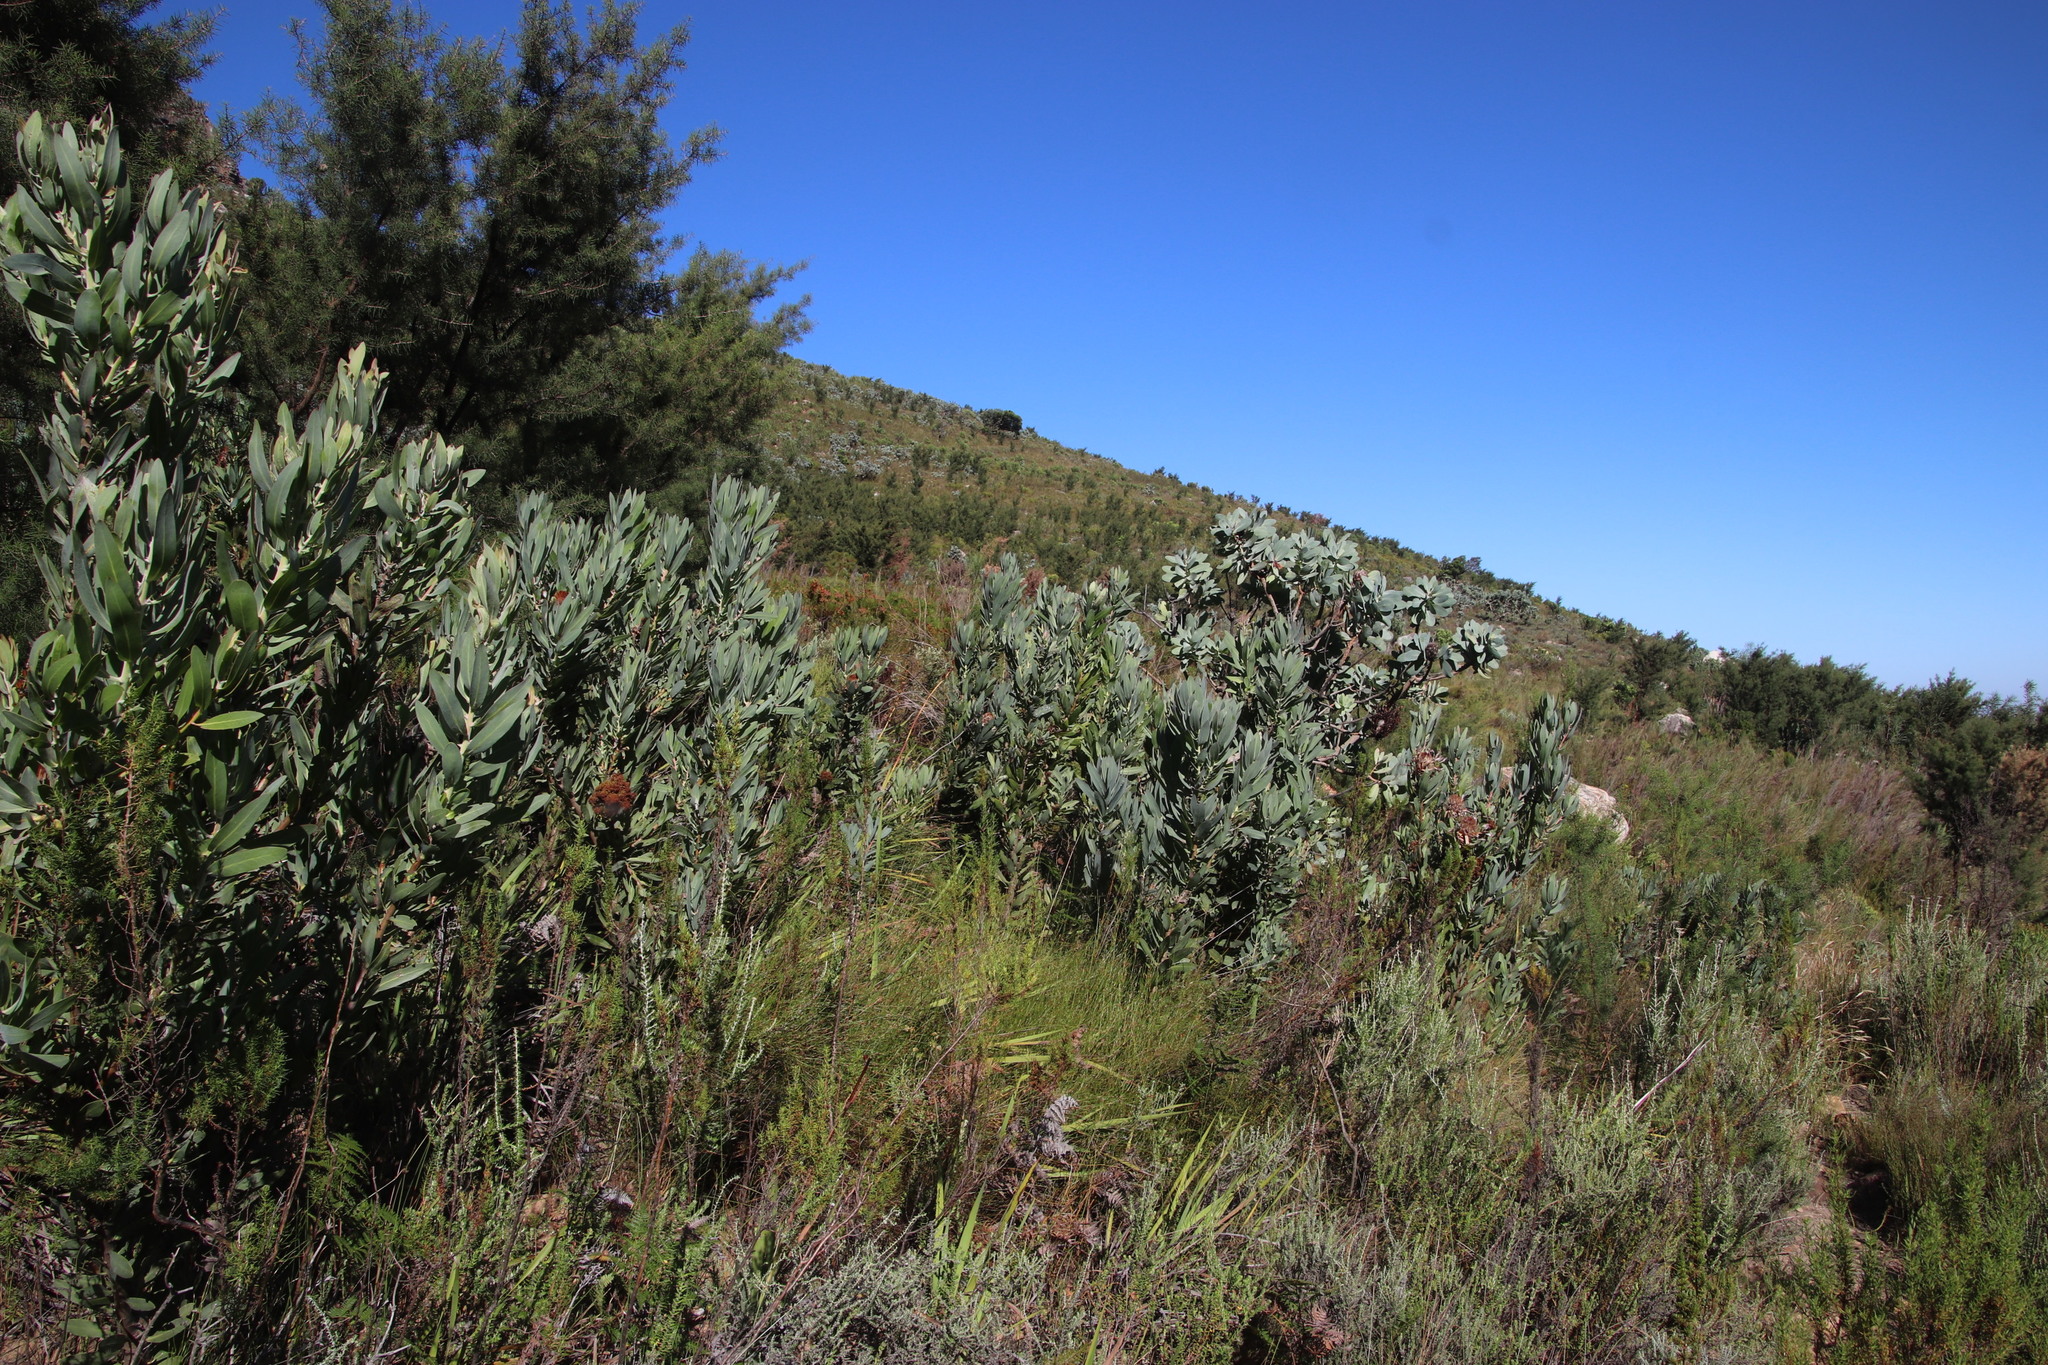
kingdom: Plantae
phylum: Tracheophyta
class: Magnoliopsida
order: Proteales
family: Proteaceae
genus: Protea
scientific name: Protea laurifolia
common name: Grey-leaf sugarbsh
